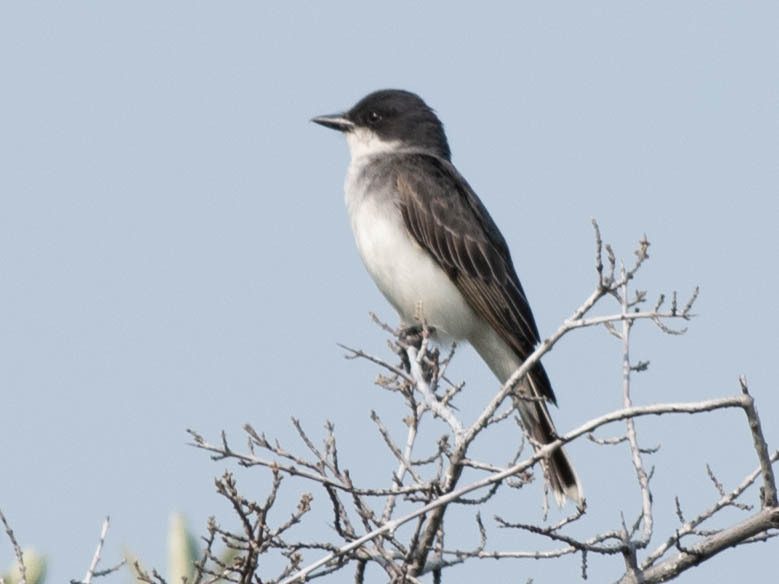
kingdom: Animalia
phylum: Chordata
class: Aves
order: Passeriformes
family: Tyrannidae
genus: Tyrannus
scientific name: Tyrannus tyrannus
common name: Eastern kingbird
